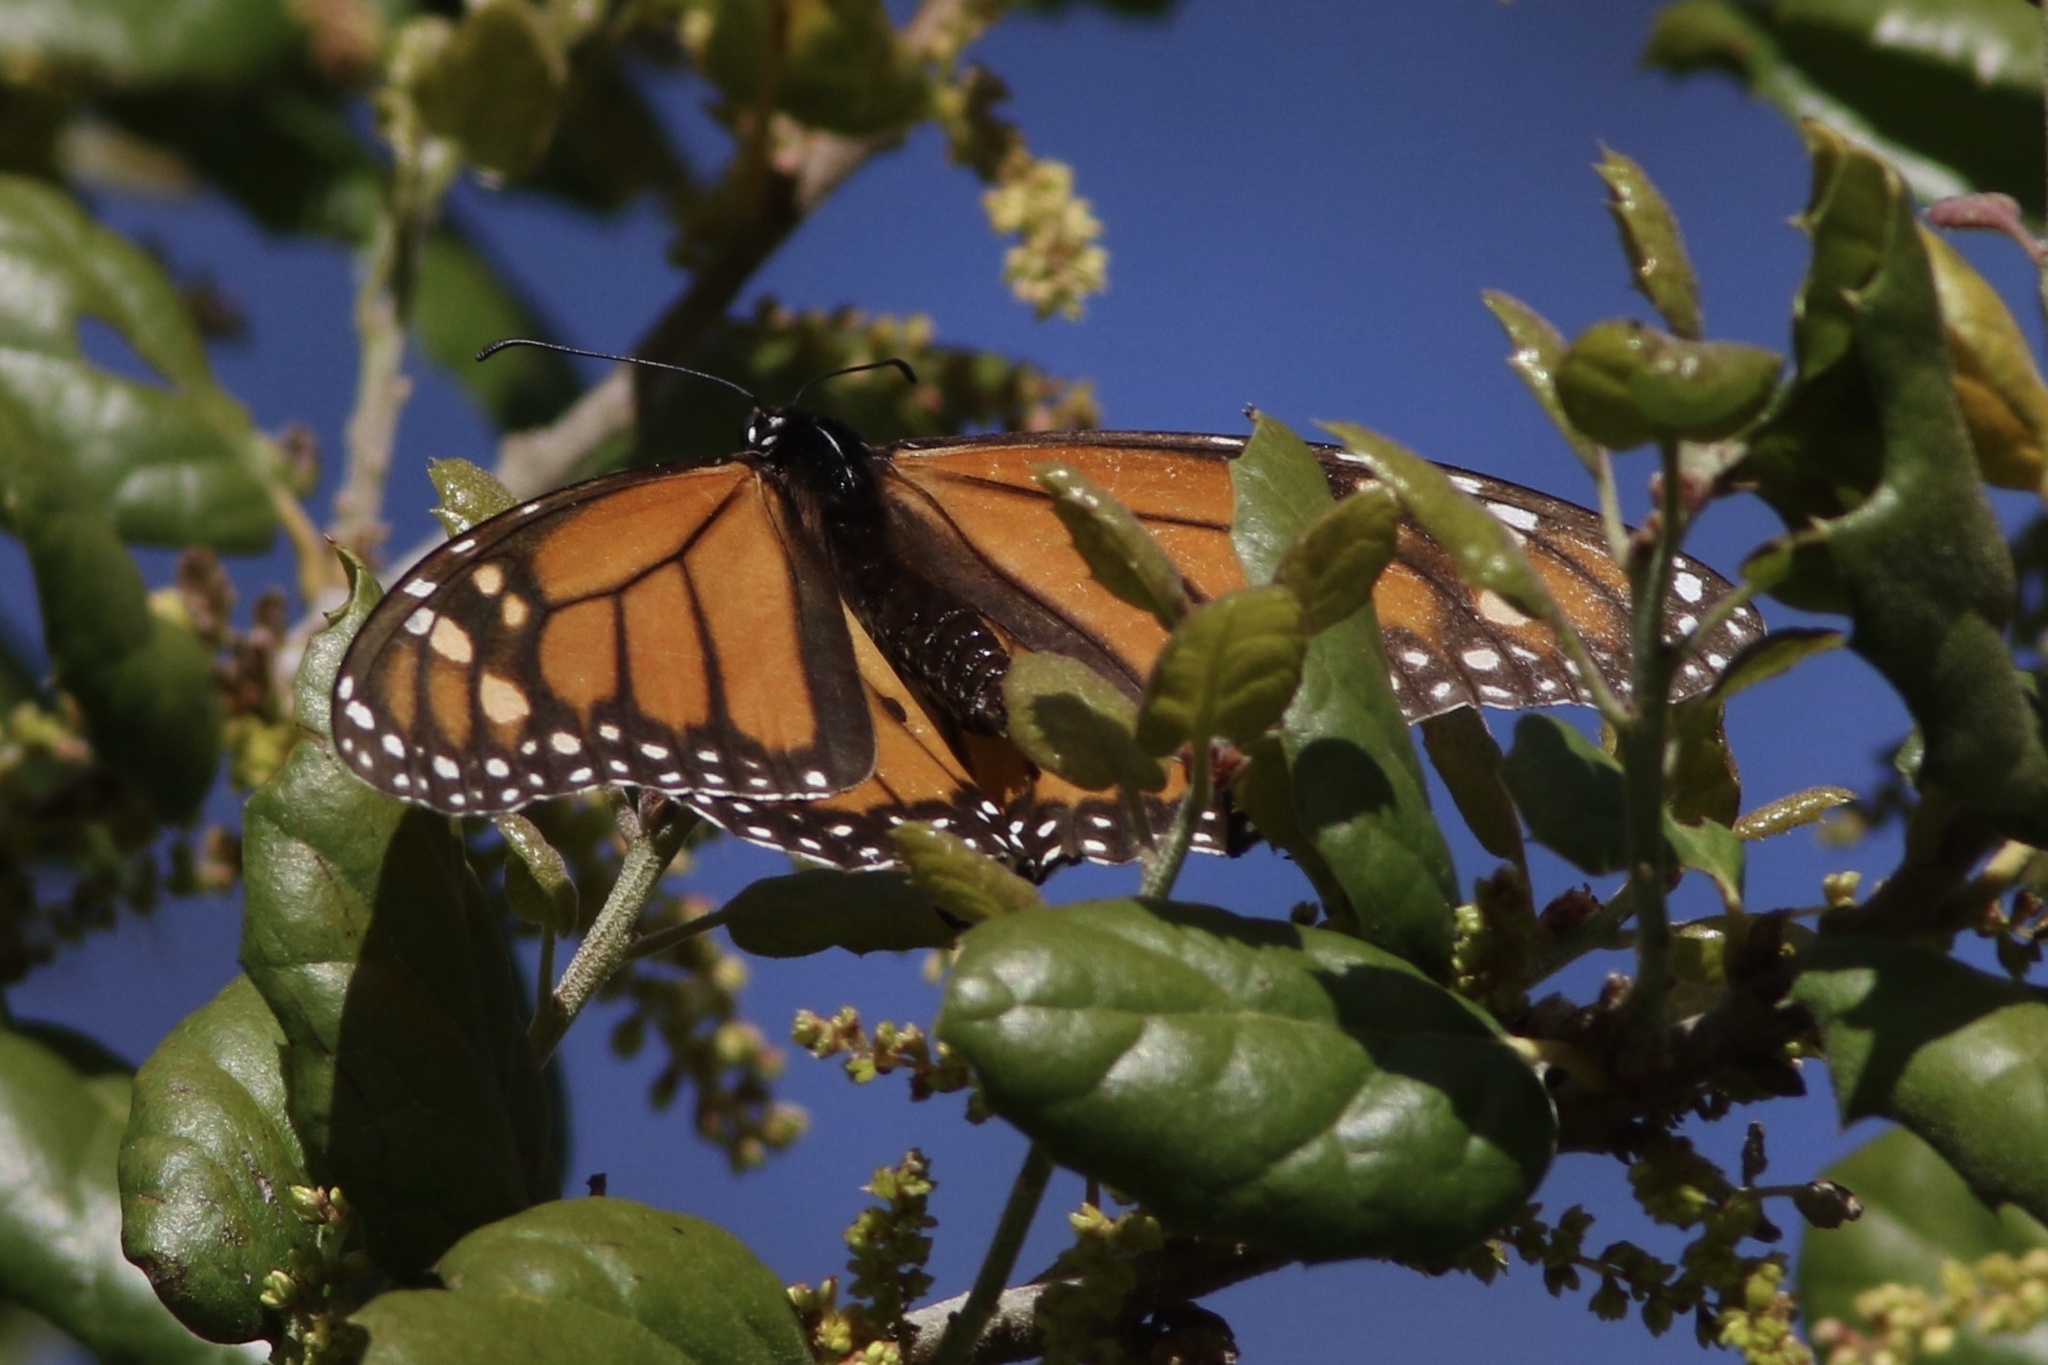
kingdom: Animalia
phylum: Arthropoda
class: Insecta
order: Lepidoptera
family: Nymphalidae
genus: Danaus
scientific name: Danaus plexippus
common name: Monarch
